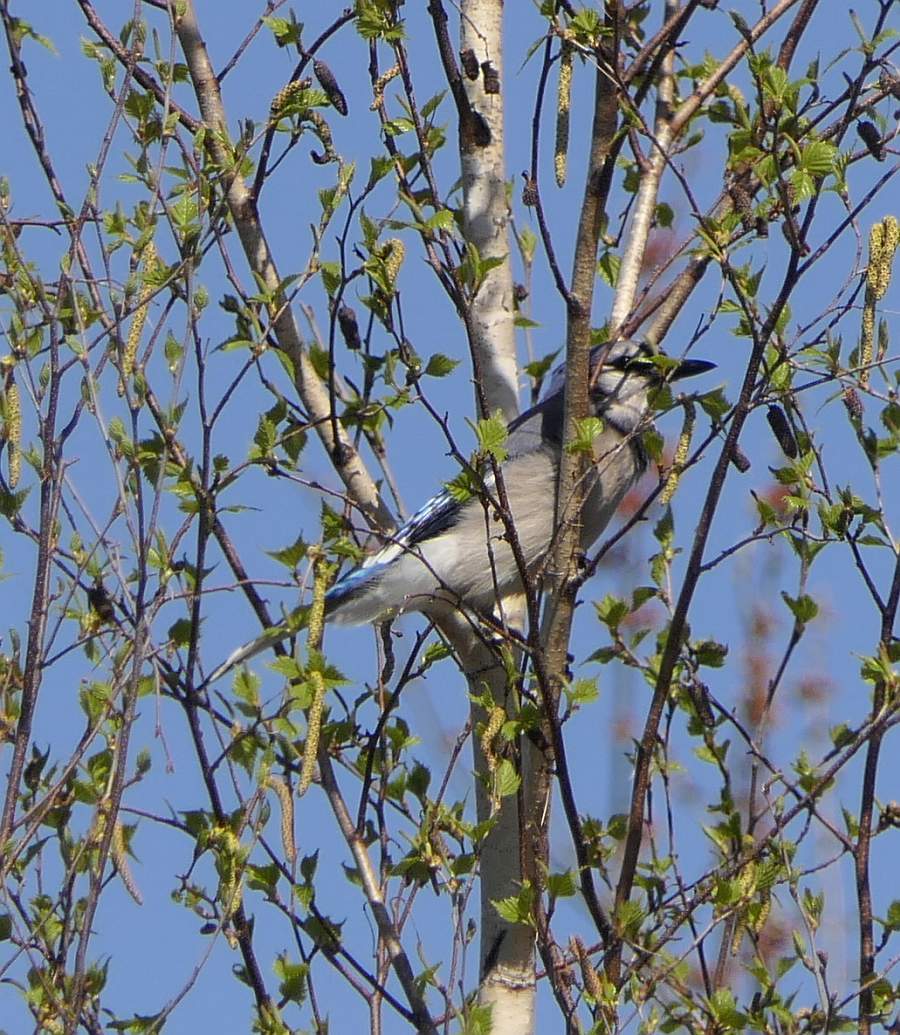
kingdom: Animalia
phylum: Chordata
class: Aves
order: Passeriformes
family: Corvidae
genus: Cyanocitta
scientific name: Cyanocitta cristata
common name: Blue jay
